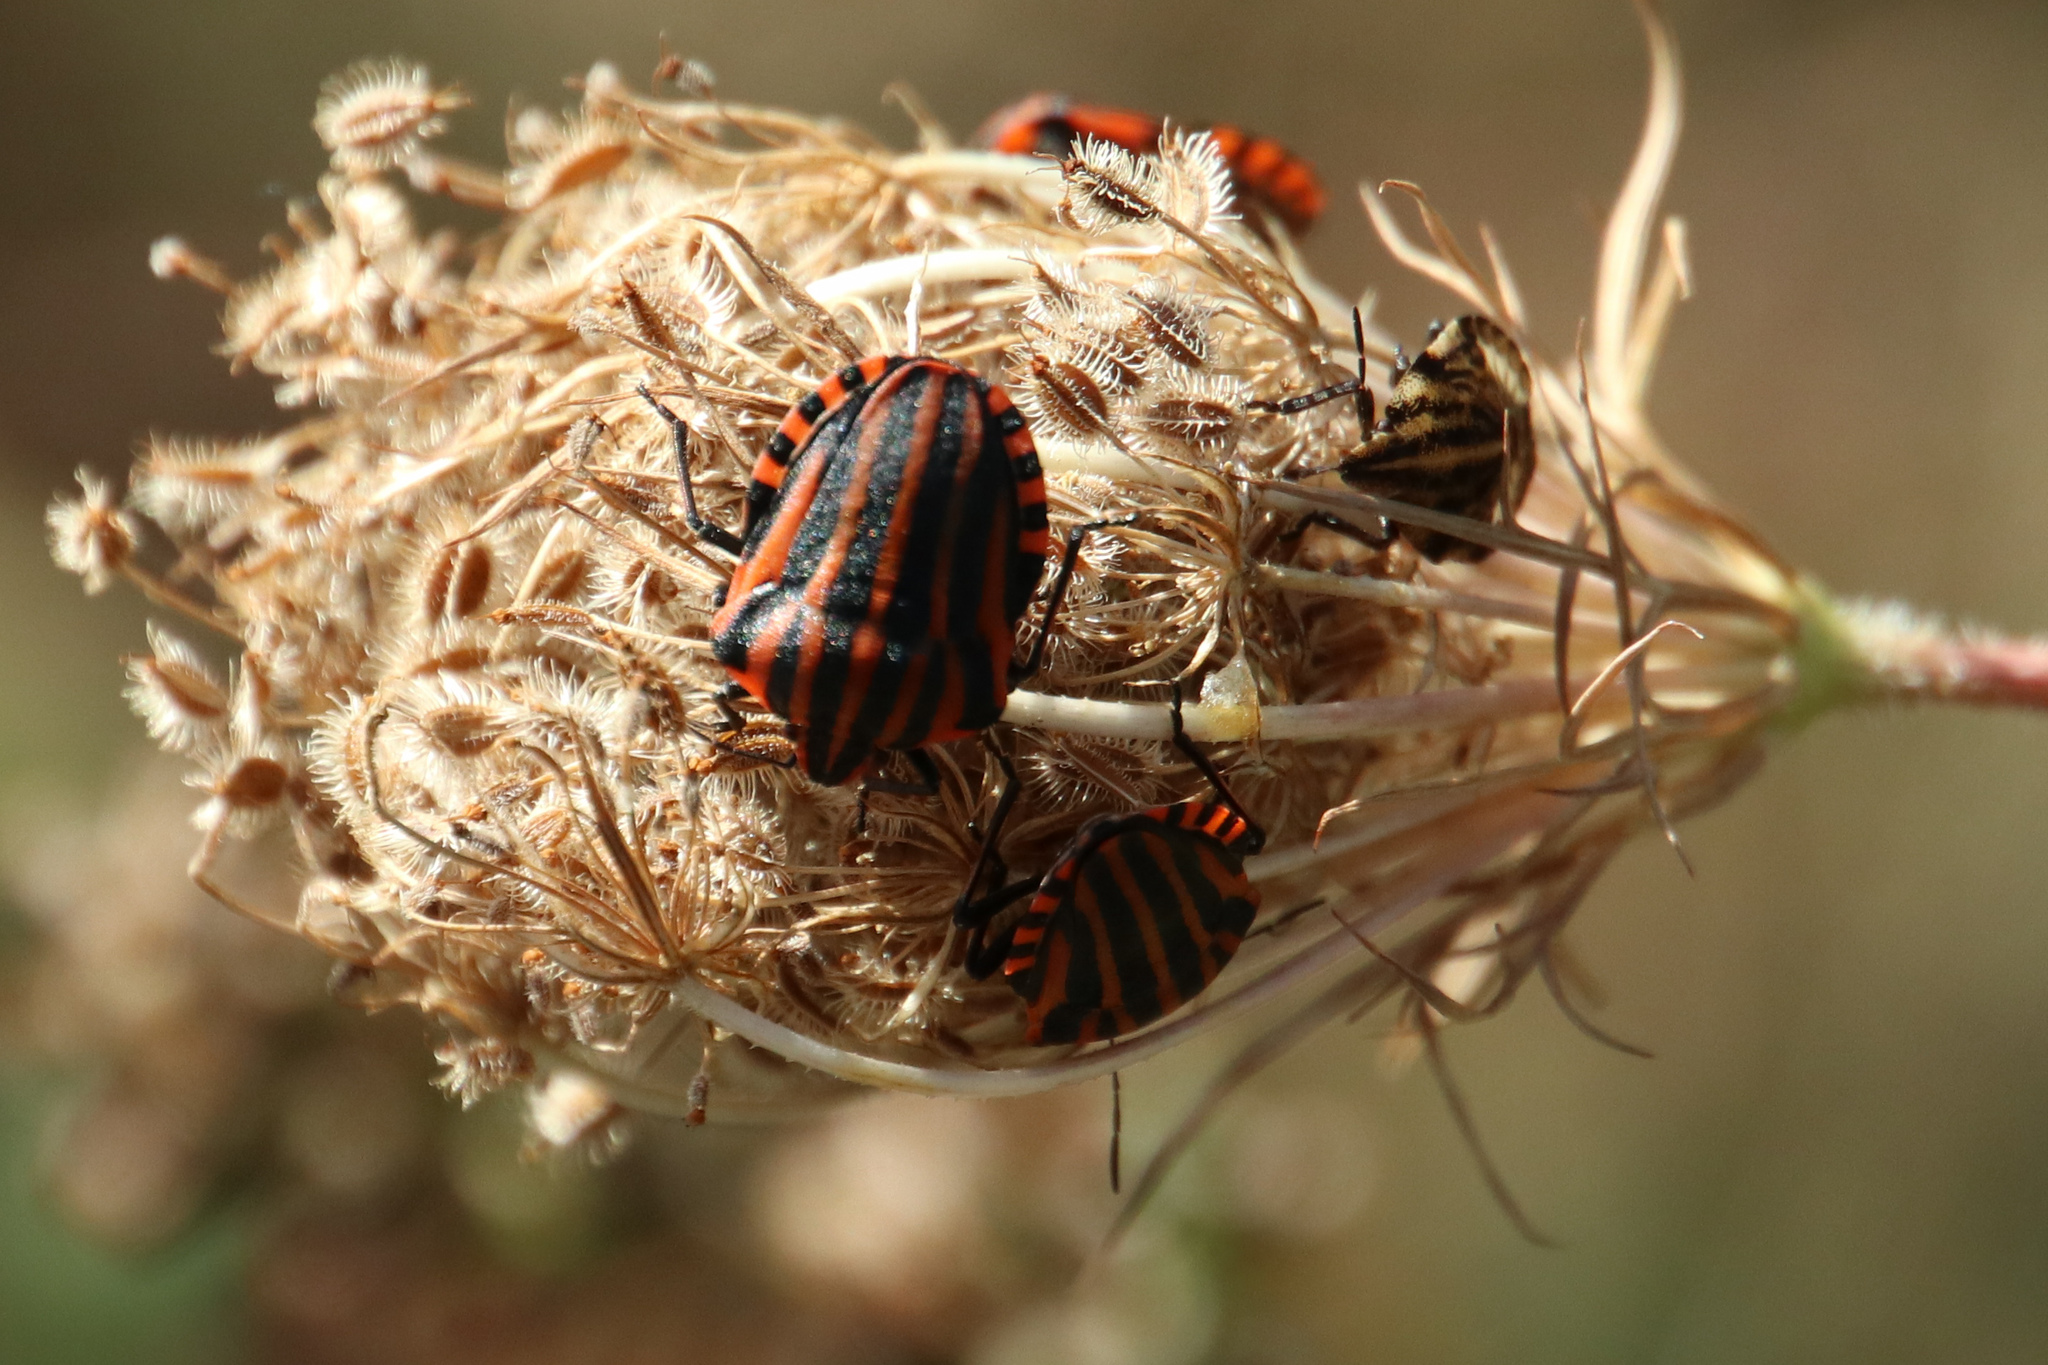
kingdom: Animalia
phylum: Arthropoda
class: Insecta
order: Hemiptera
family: Pentatomidae
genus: Graphosoma
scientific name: Graphosoma italicum
